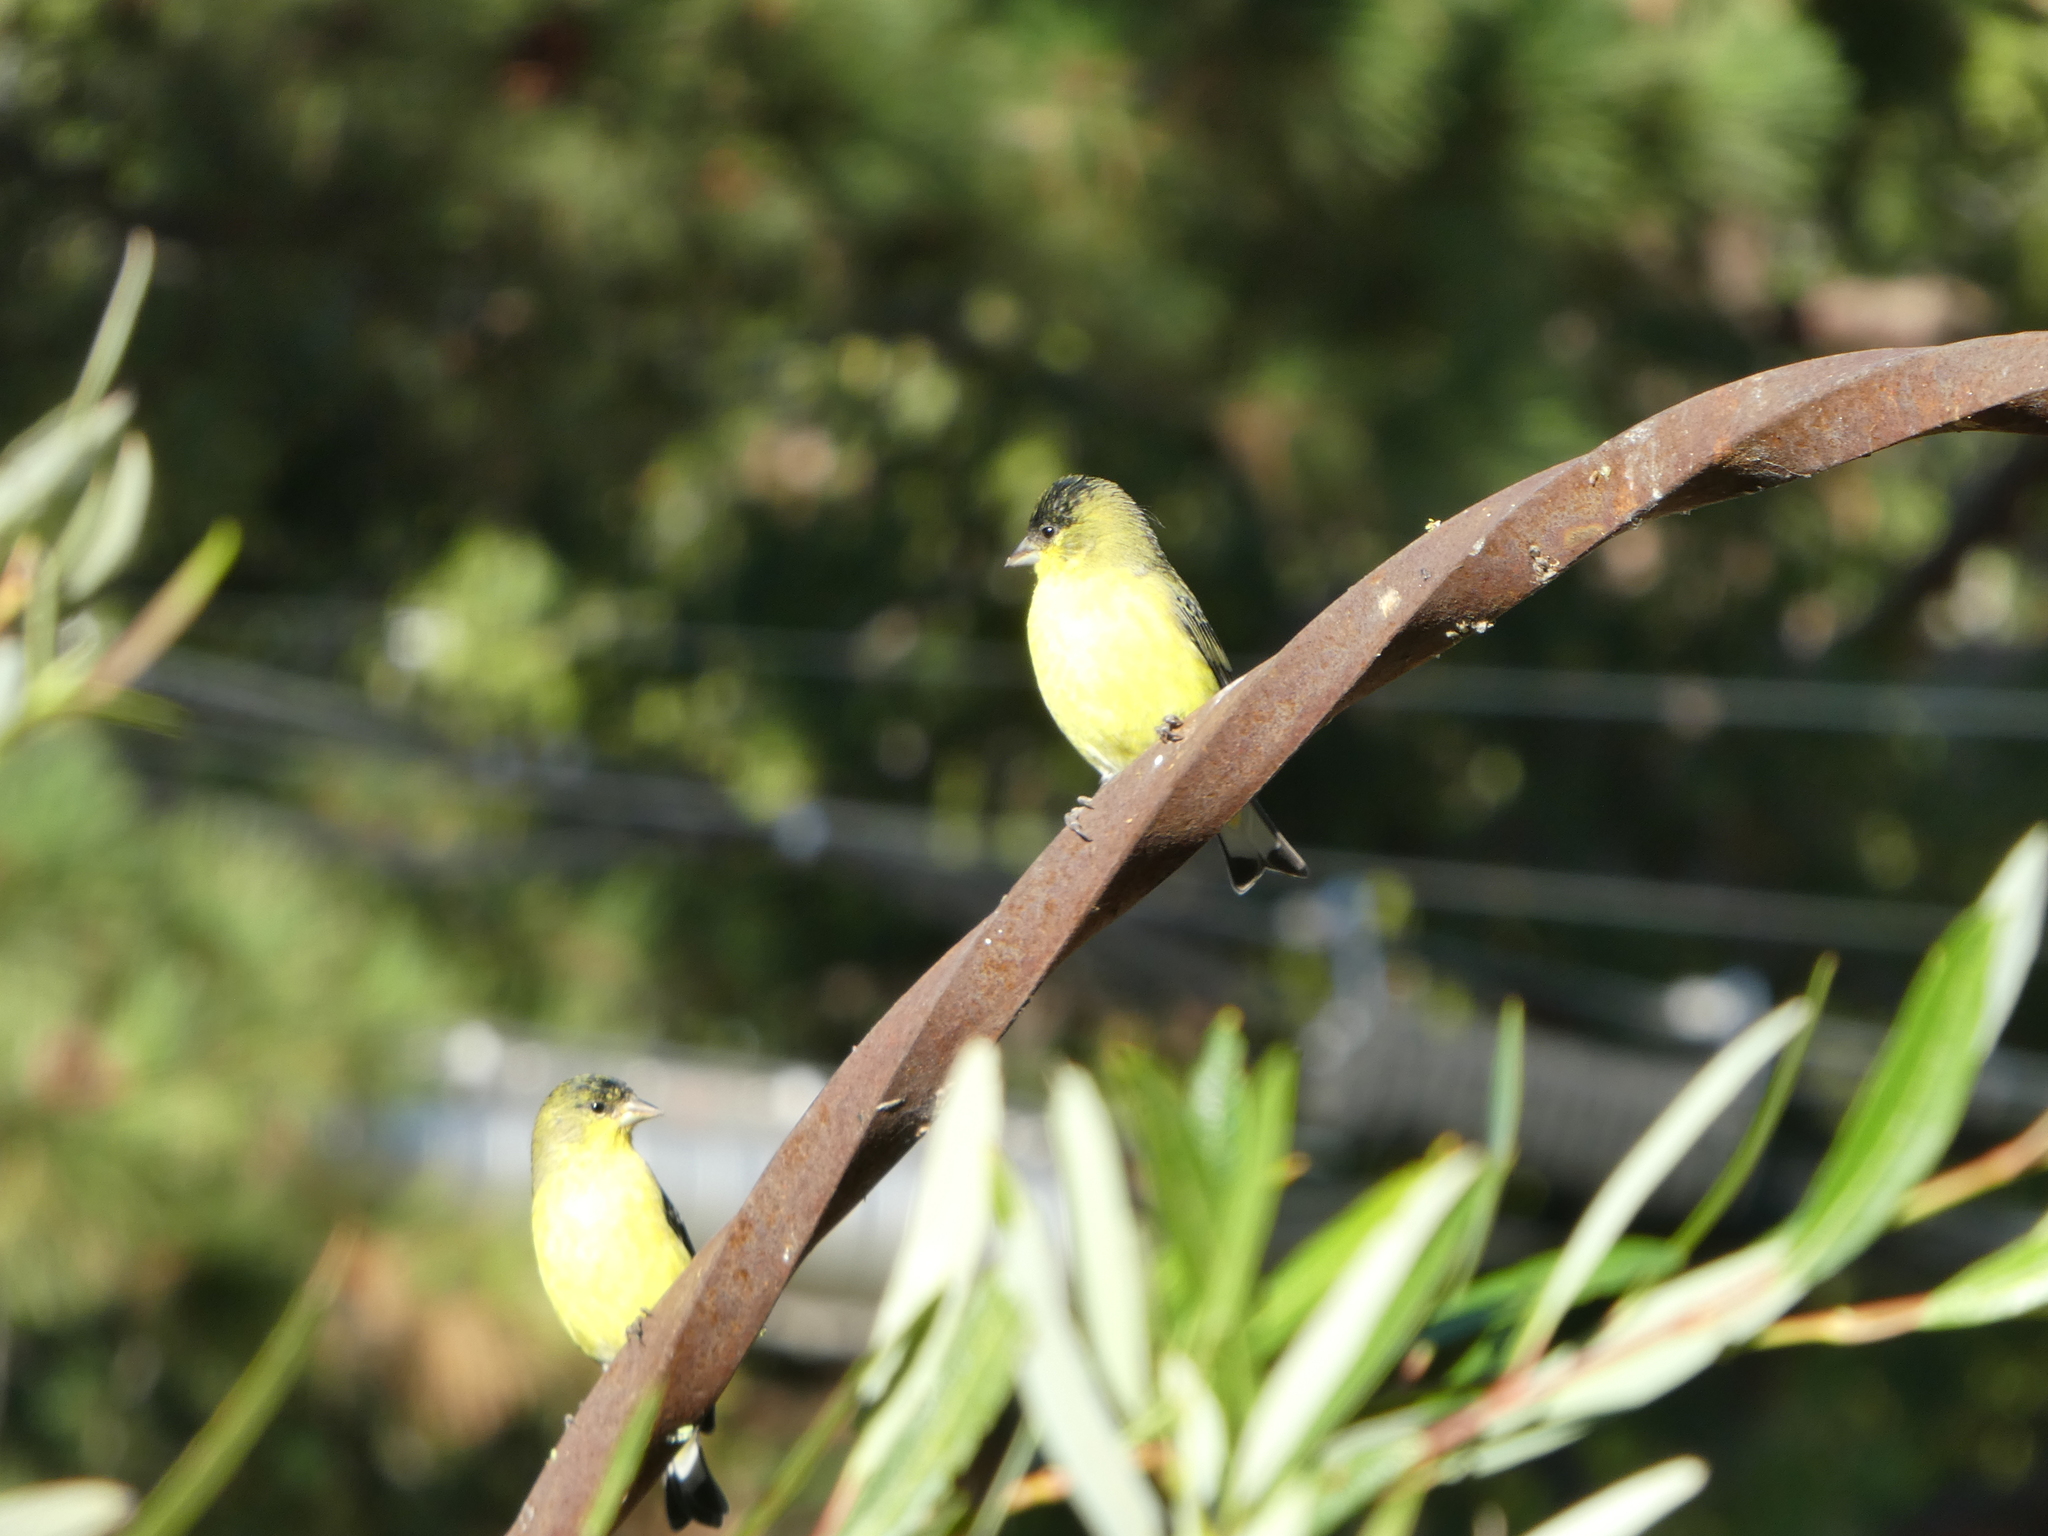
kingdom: Animalia
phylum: Chordata
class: Aves
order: Passeriformes
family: Fringillidae
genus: Spinus
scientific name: Spinus psaltria
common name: Lesser goldfinch
